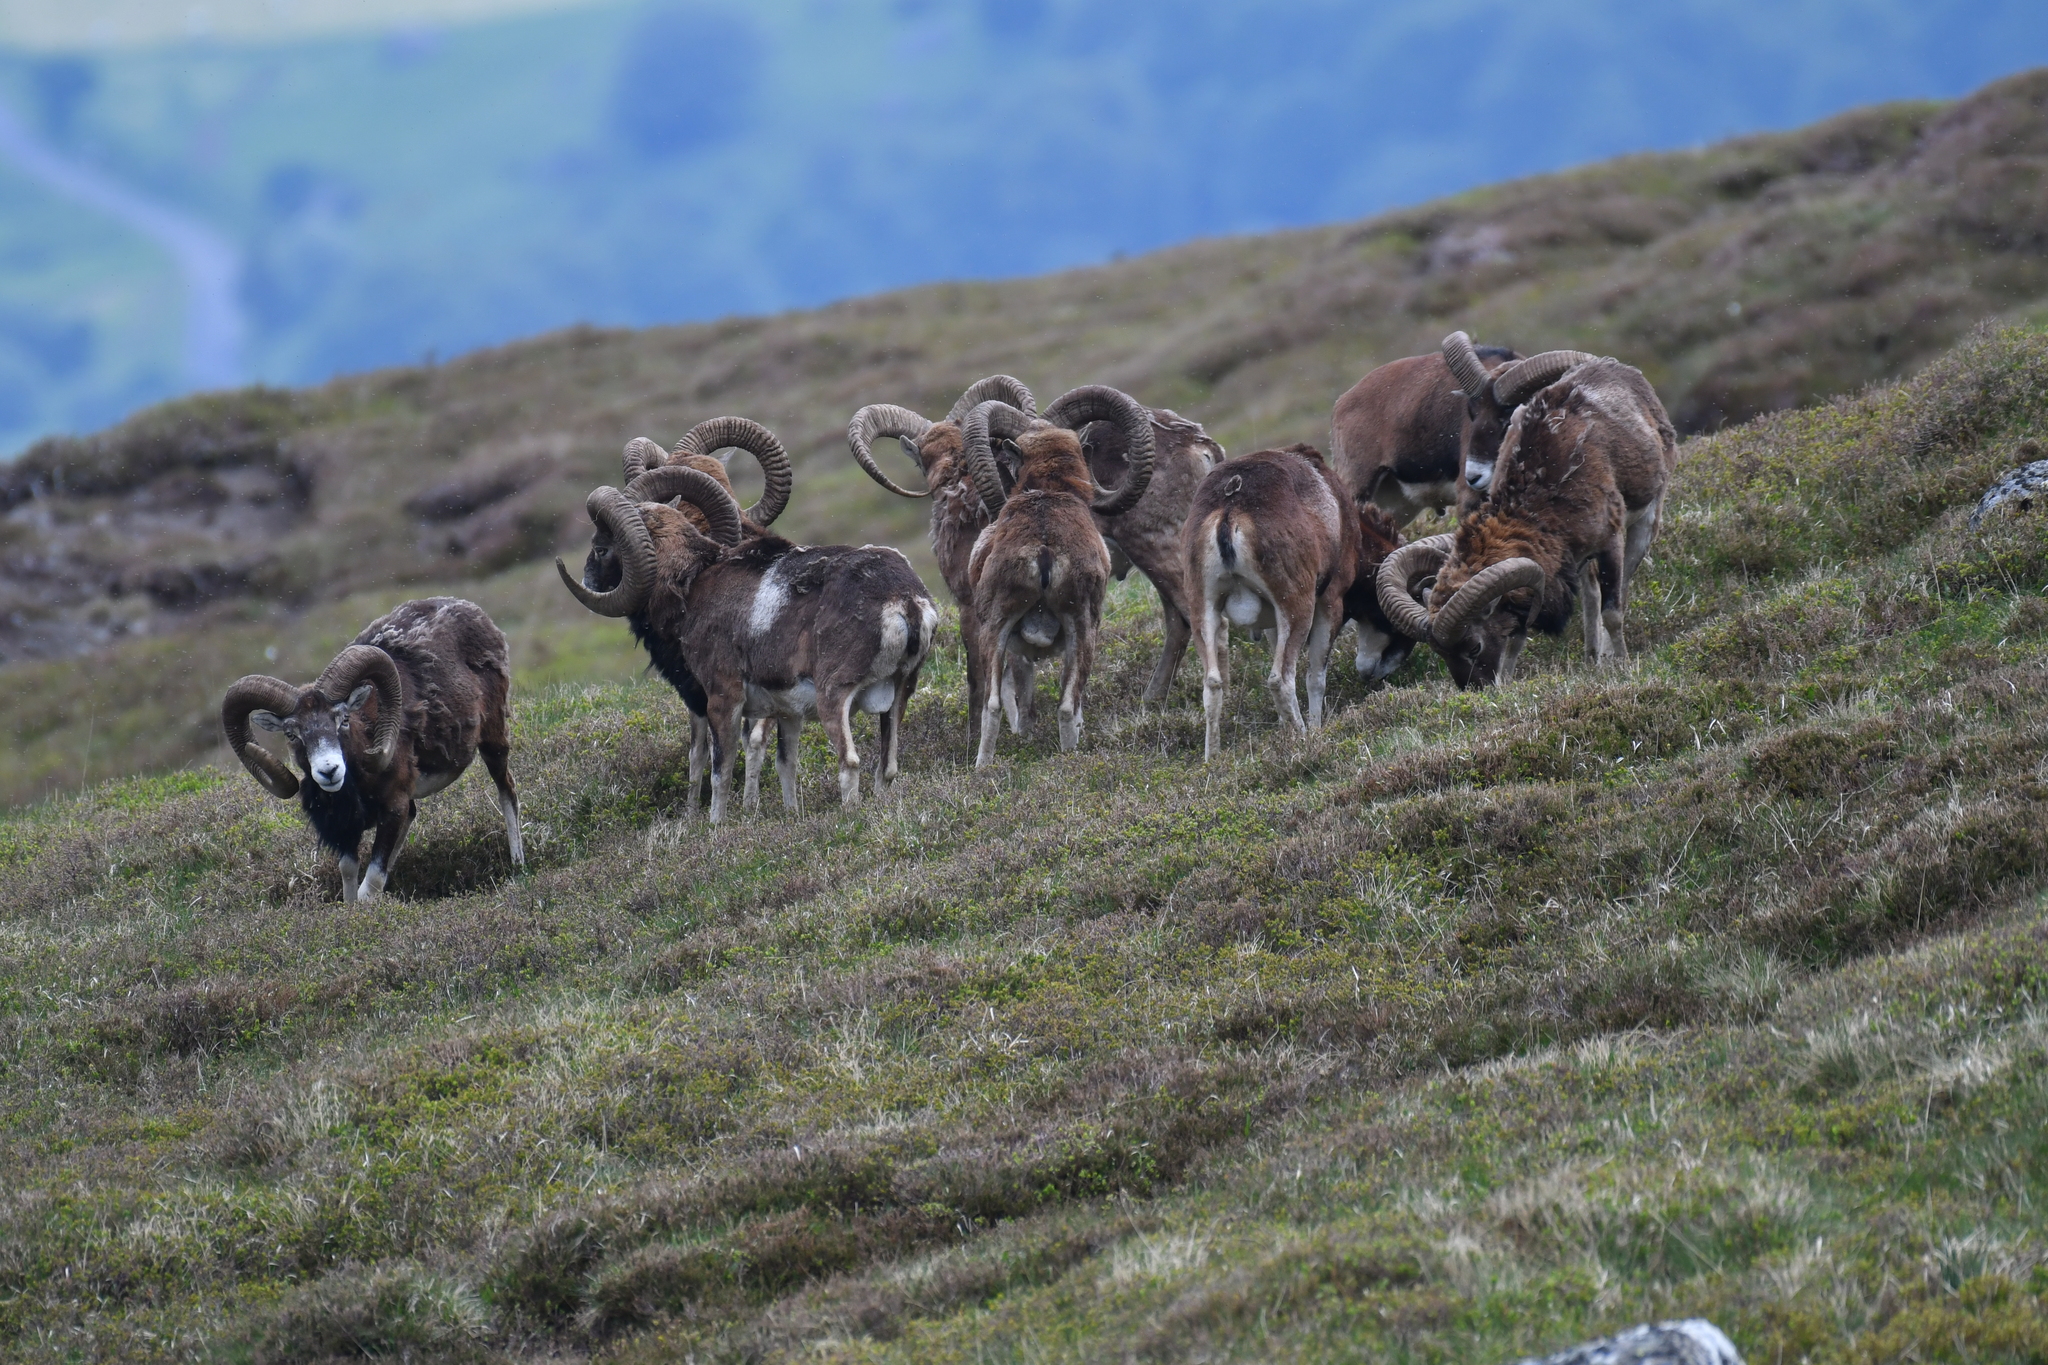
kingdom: Animalia
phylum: Chordata
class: Mammalia
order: Artiodactyla
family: Bovidae
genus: Ovis
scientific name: Ovis aries
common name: Domestic sheep
